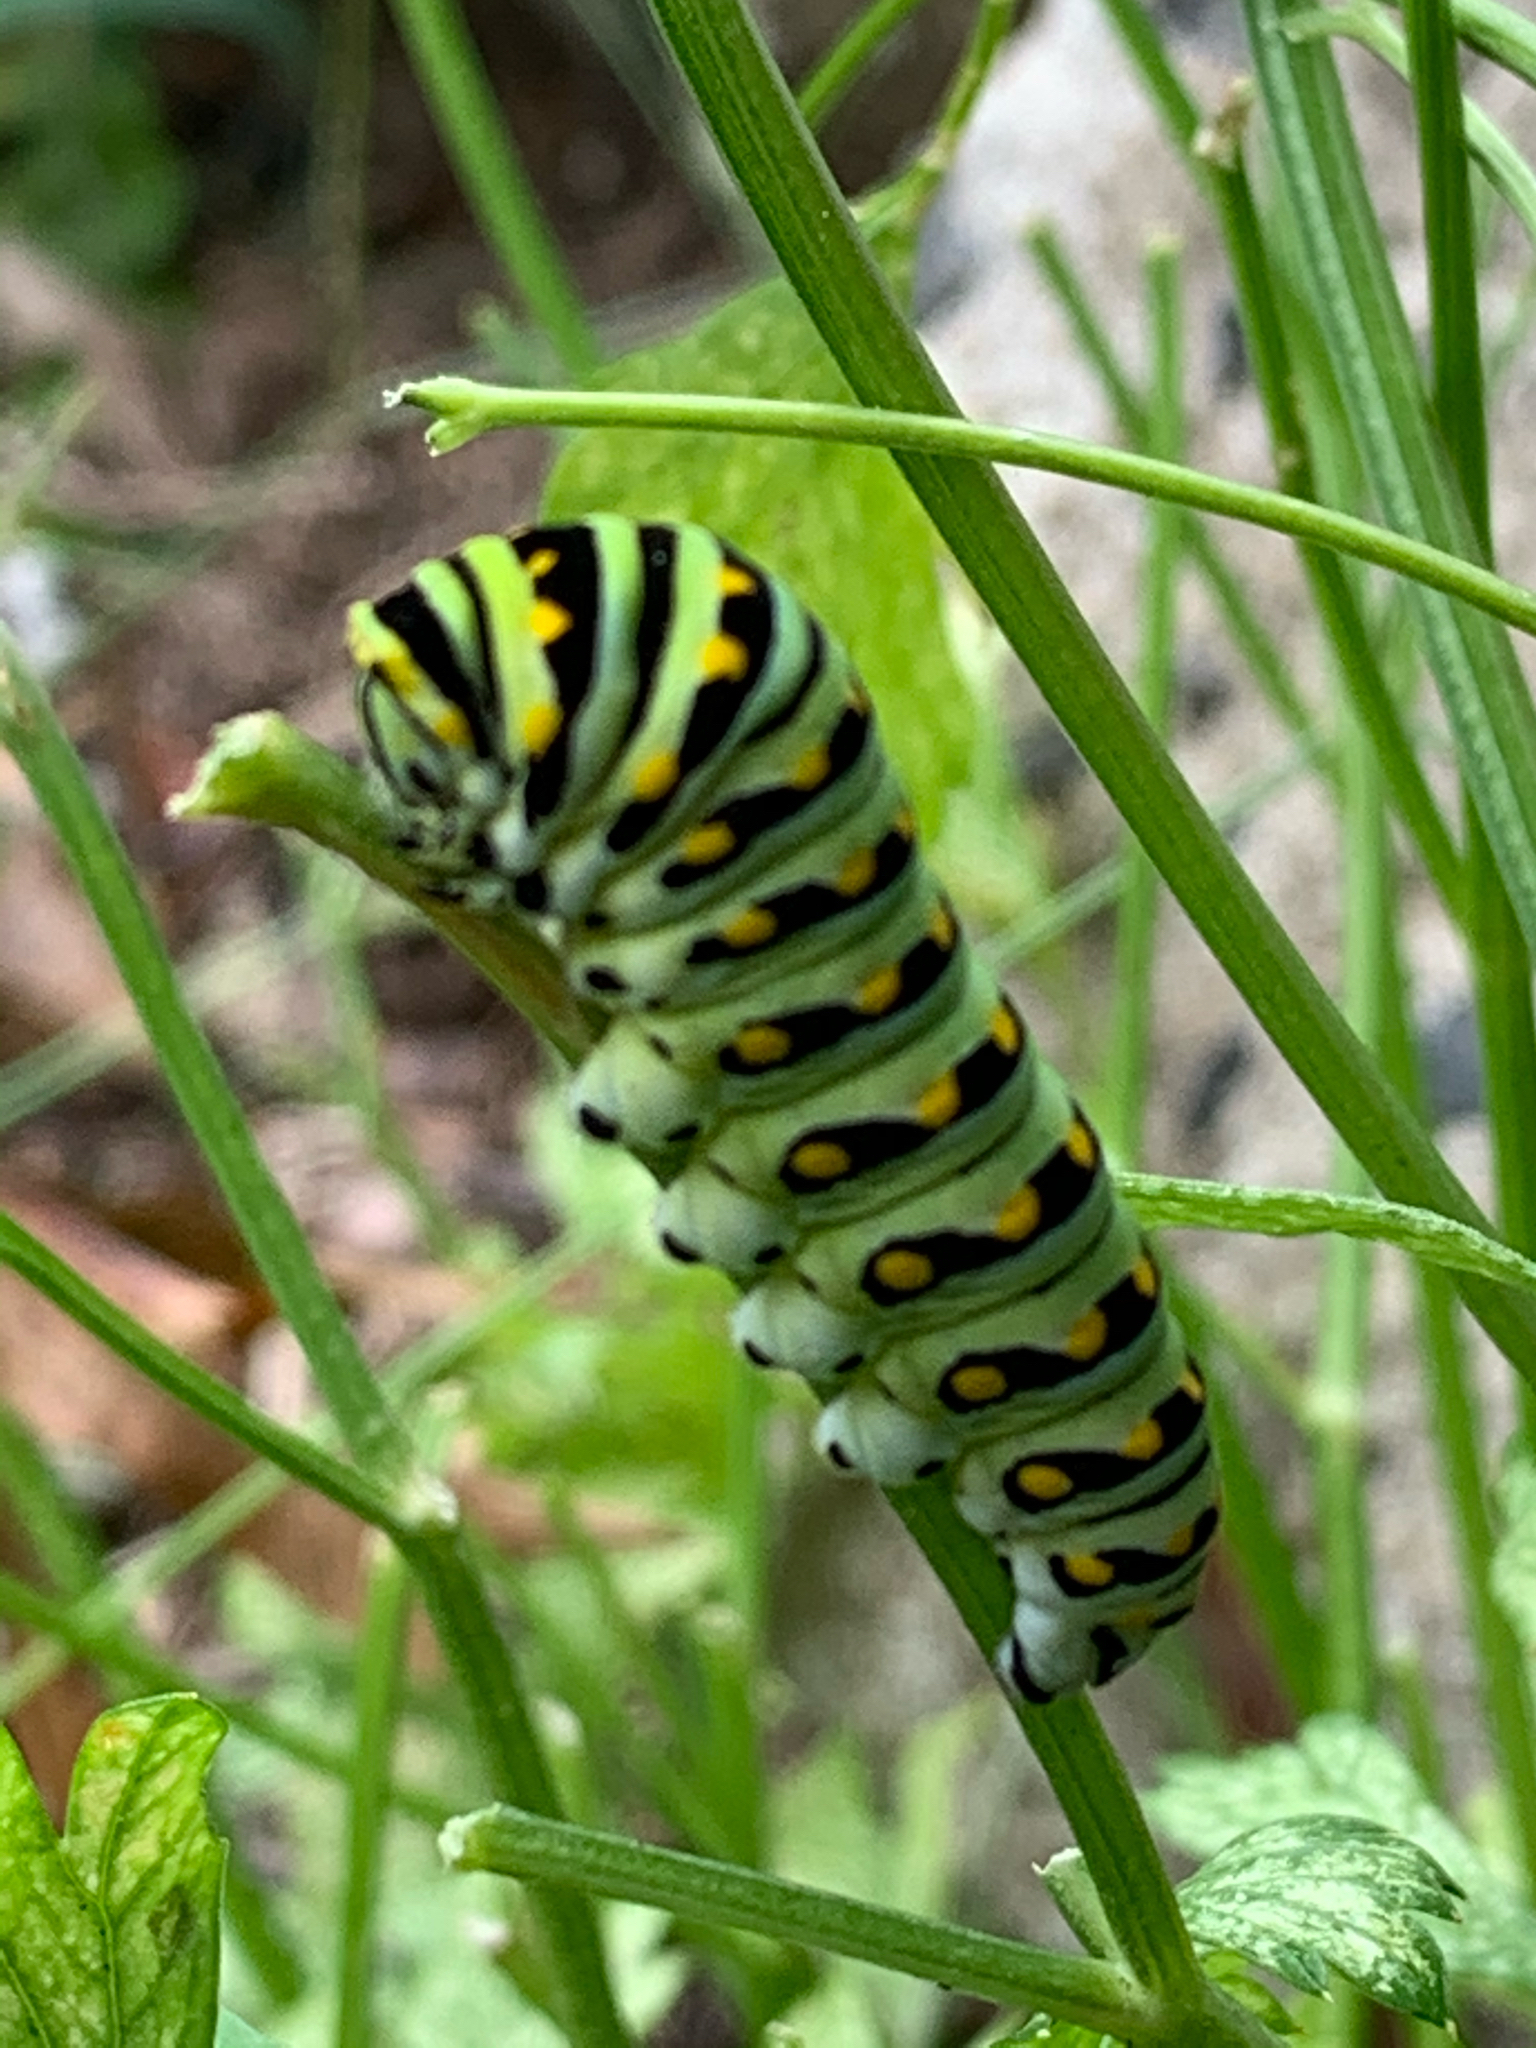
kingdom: Animalia
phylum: Arthropoda
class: Insecta
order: Lepidoptera
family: Papilionidae
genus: Papilio
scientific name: Papilio polyxenes
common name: Black swallowtail
